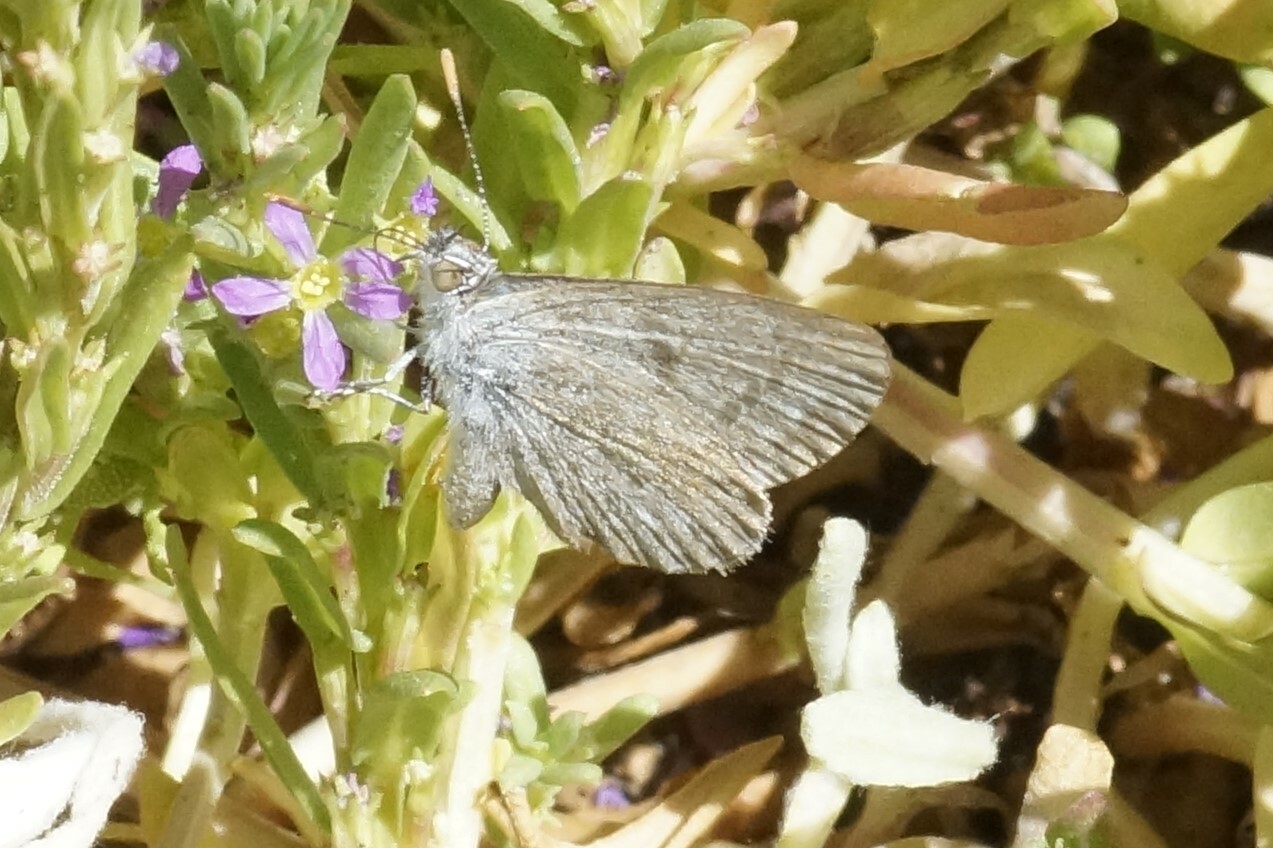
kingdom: Animalia
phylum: Arthropoda
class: Insecta
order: Lepidoptera
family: Lycaenidae
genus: Zizina
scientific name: Zizina otis
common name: Lesser grass blue
